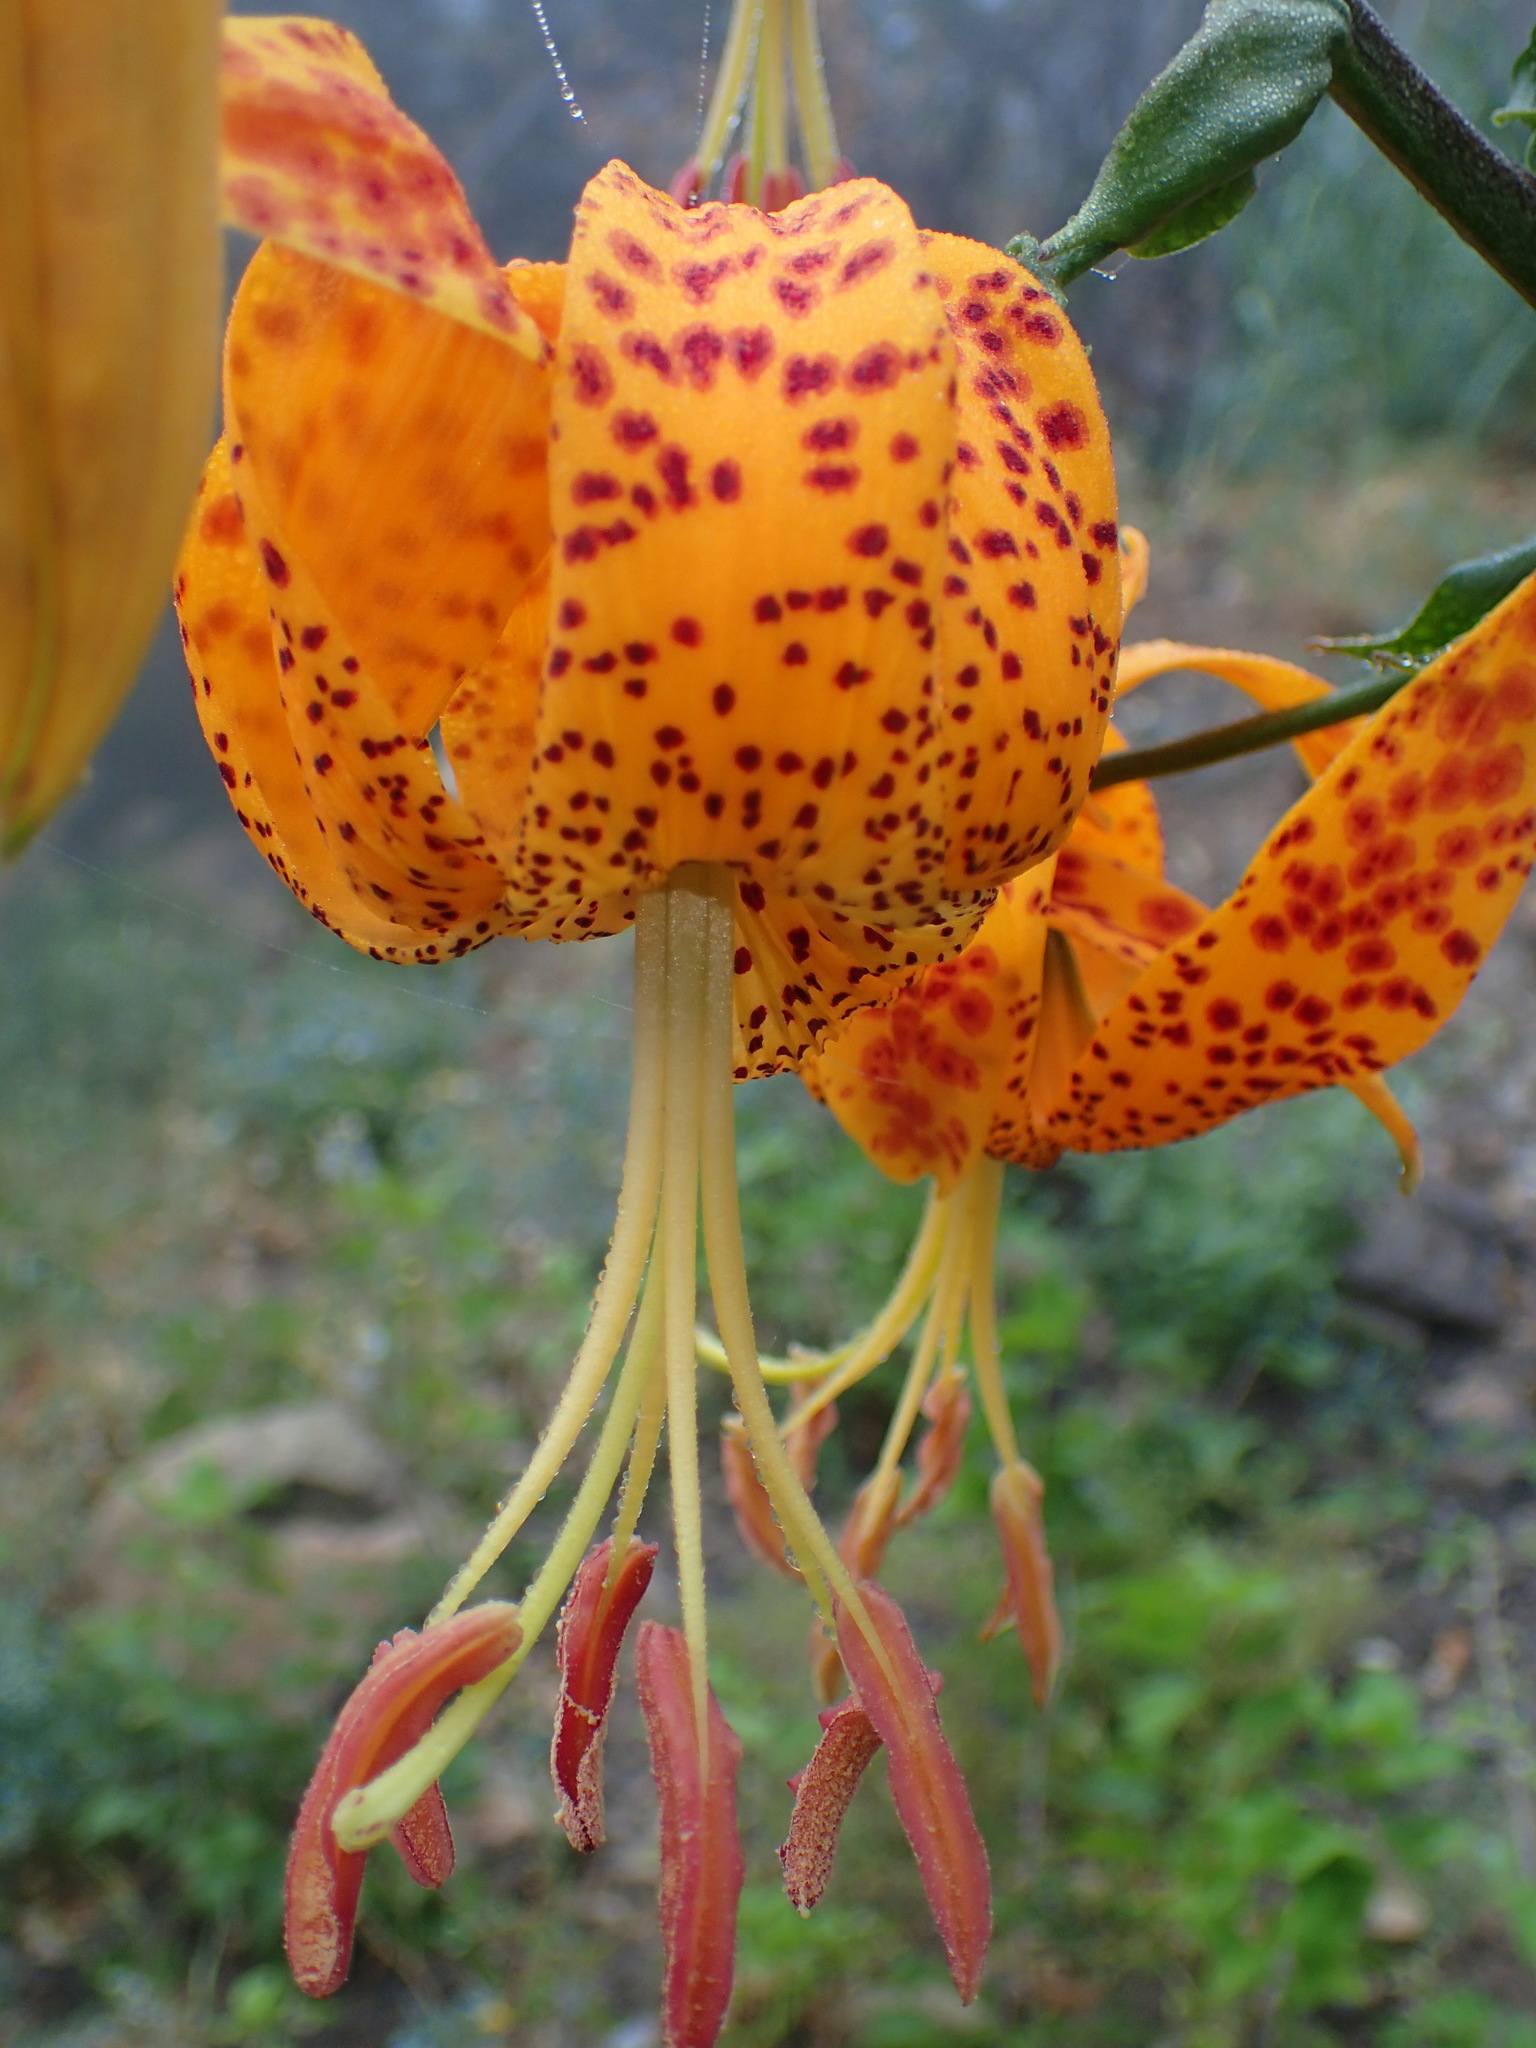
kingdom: Plantae
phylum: Tracheophyta
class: Liliopsida
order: Liliales
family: Liliaceae
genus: Lilium
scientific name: Lilium humboldtii
